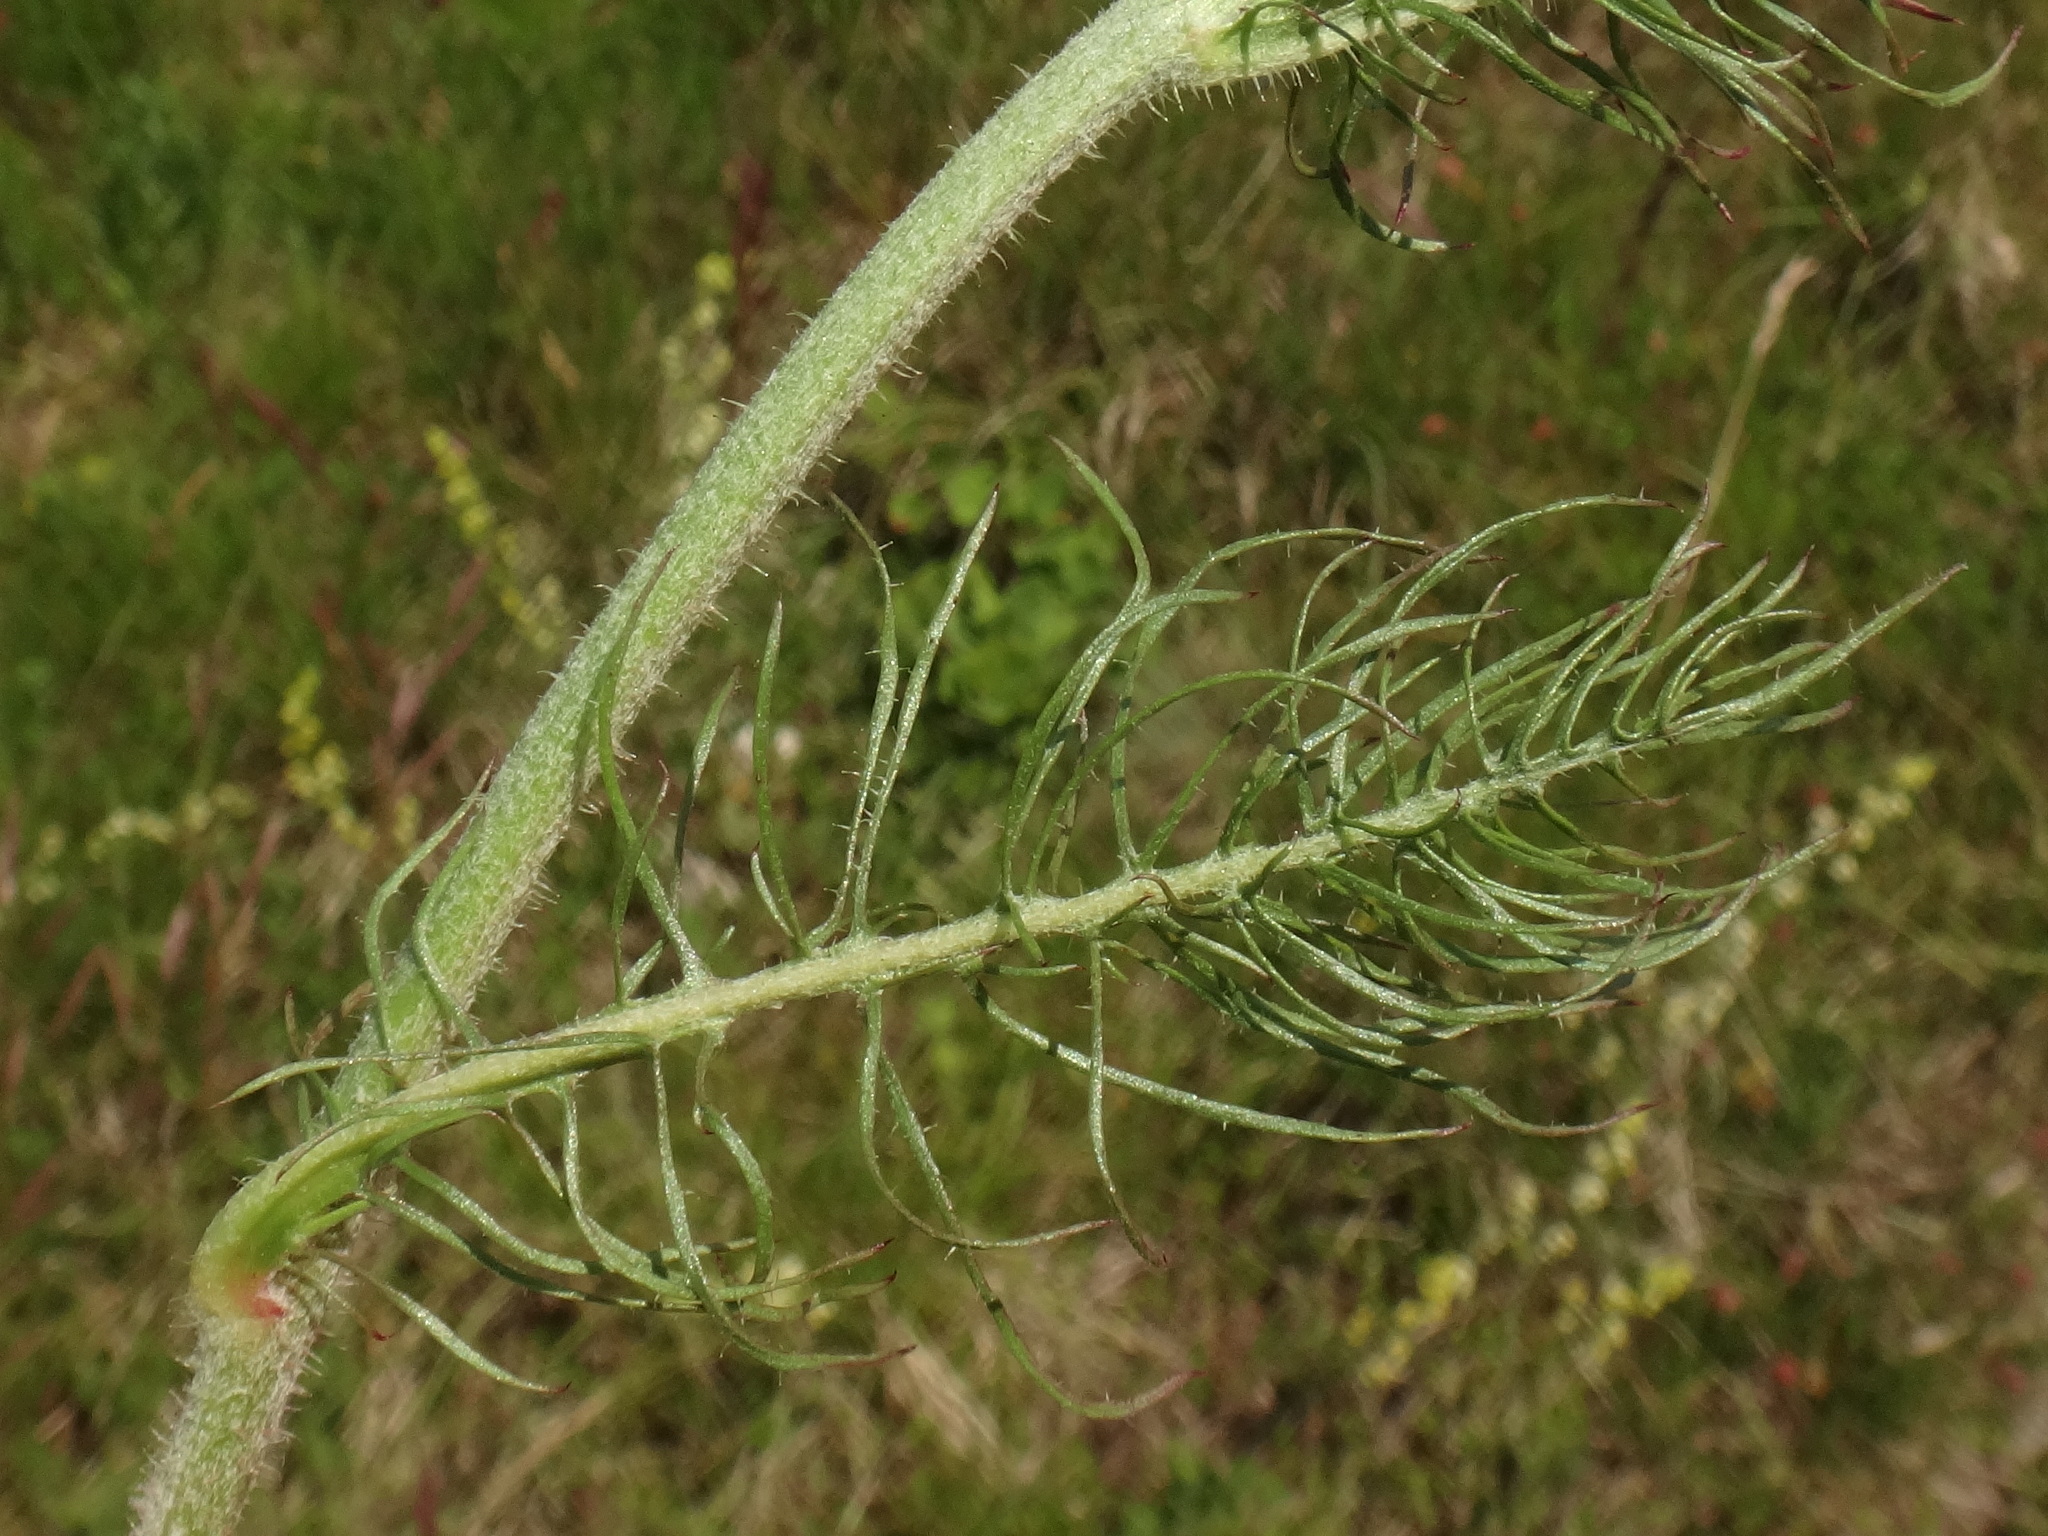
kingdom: Plantae
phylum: Tracheophyta
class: Magnoliopsida
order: Asterales
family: Asteraceae
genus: Crepis
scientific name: Crepis chondrilloides
